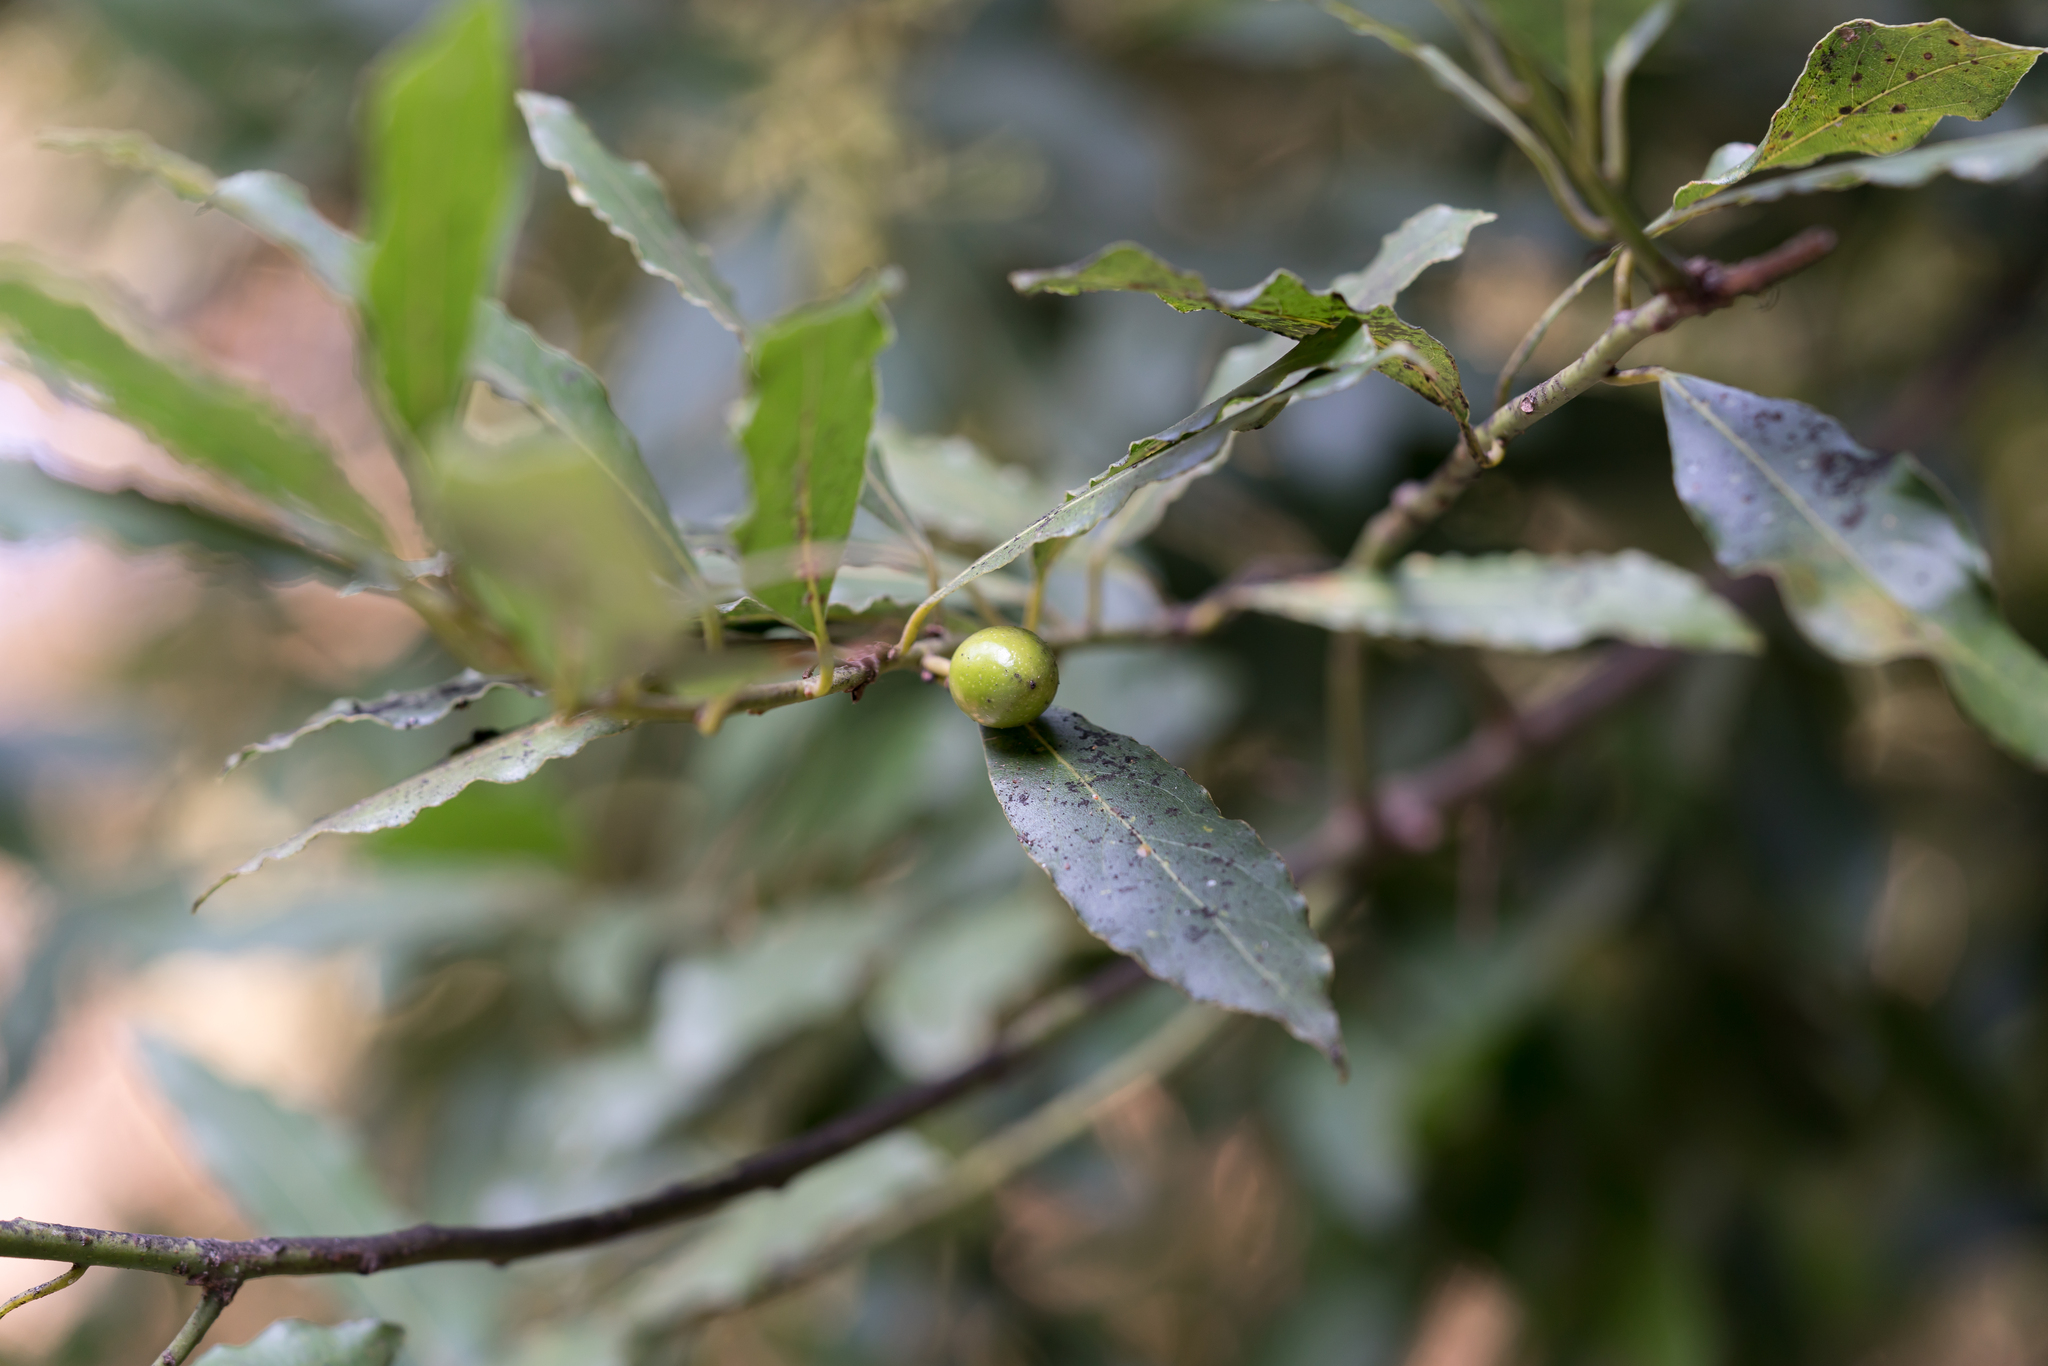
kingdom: Plantae
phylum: Tracheophyta
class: Magnoliopsida
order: Laurales
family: Lauraceae
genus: Laurus
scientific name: Laurus nobilis
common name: Bay
